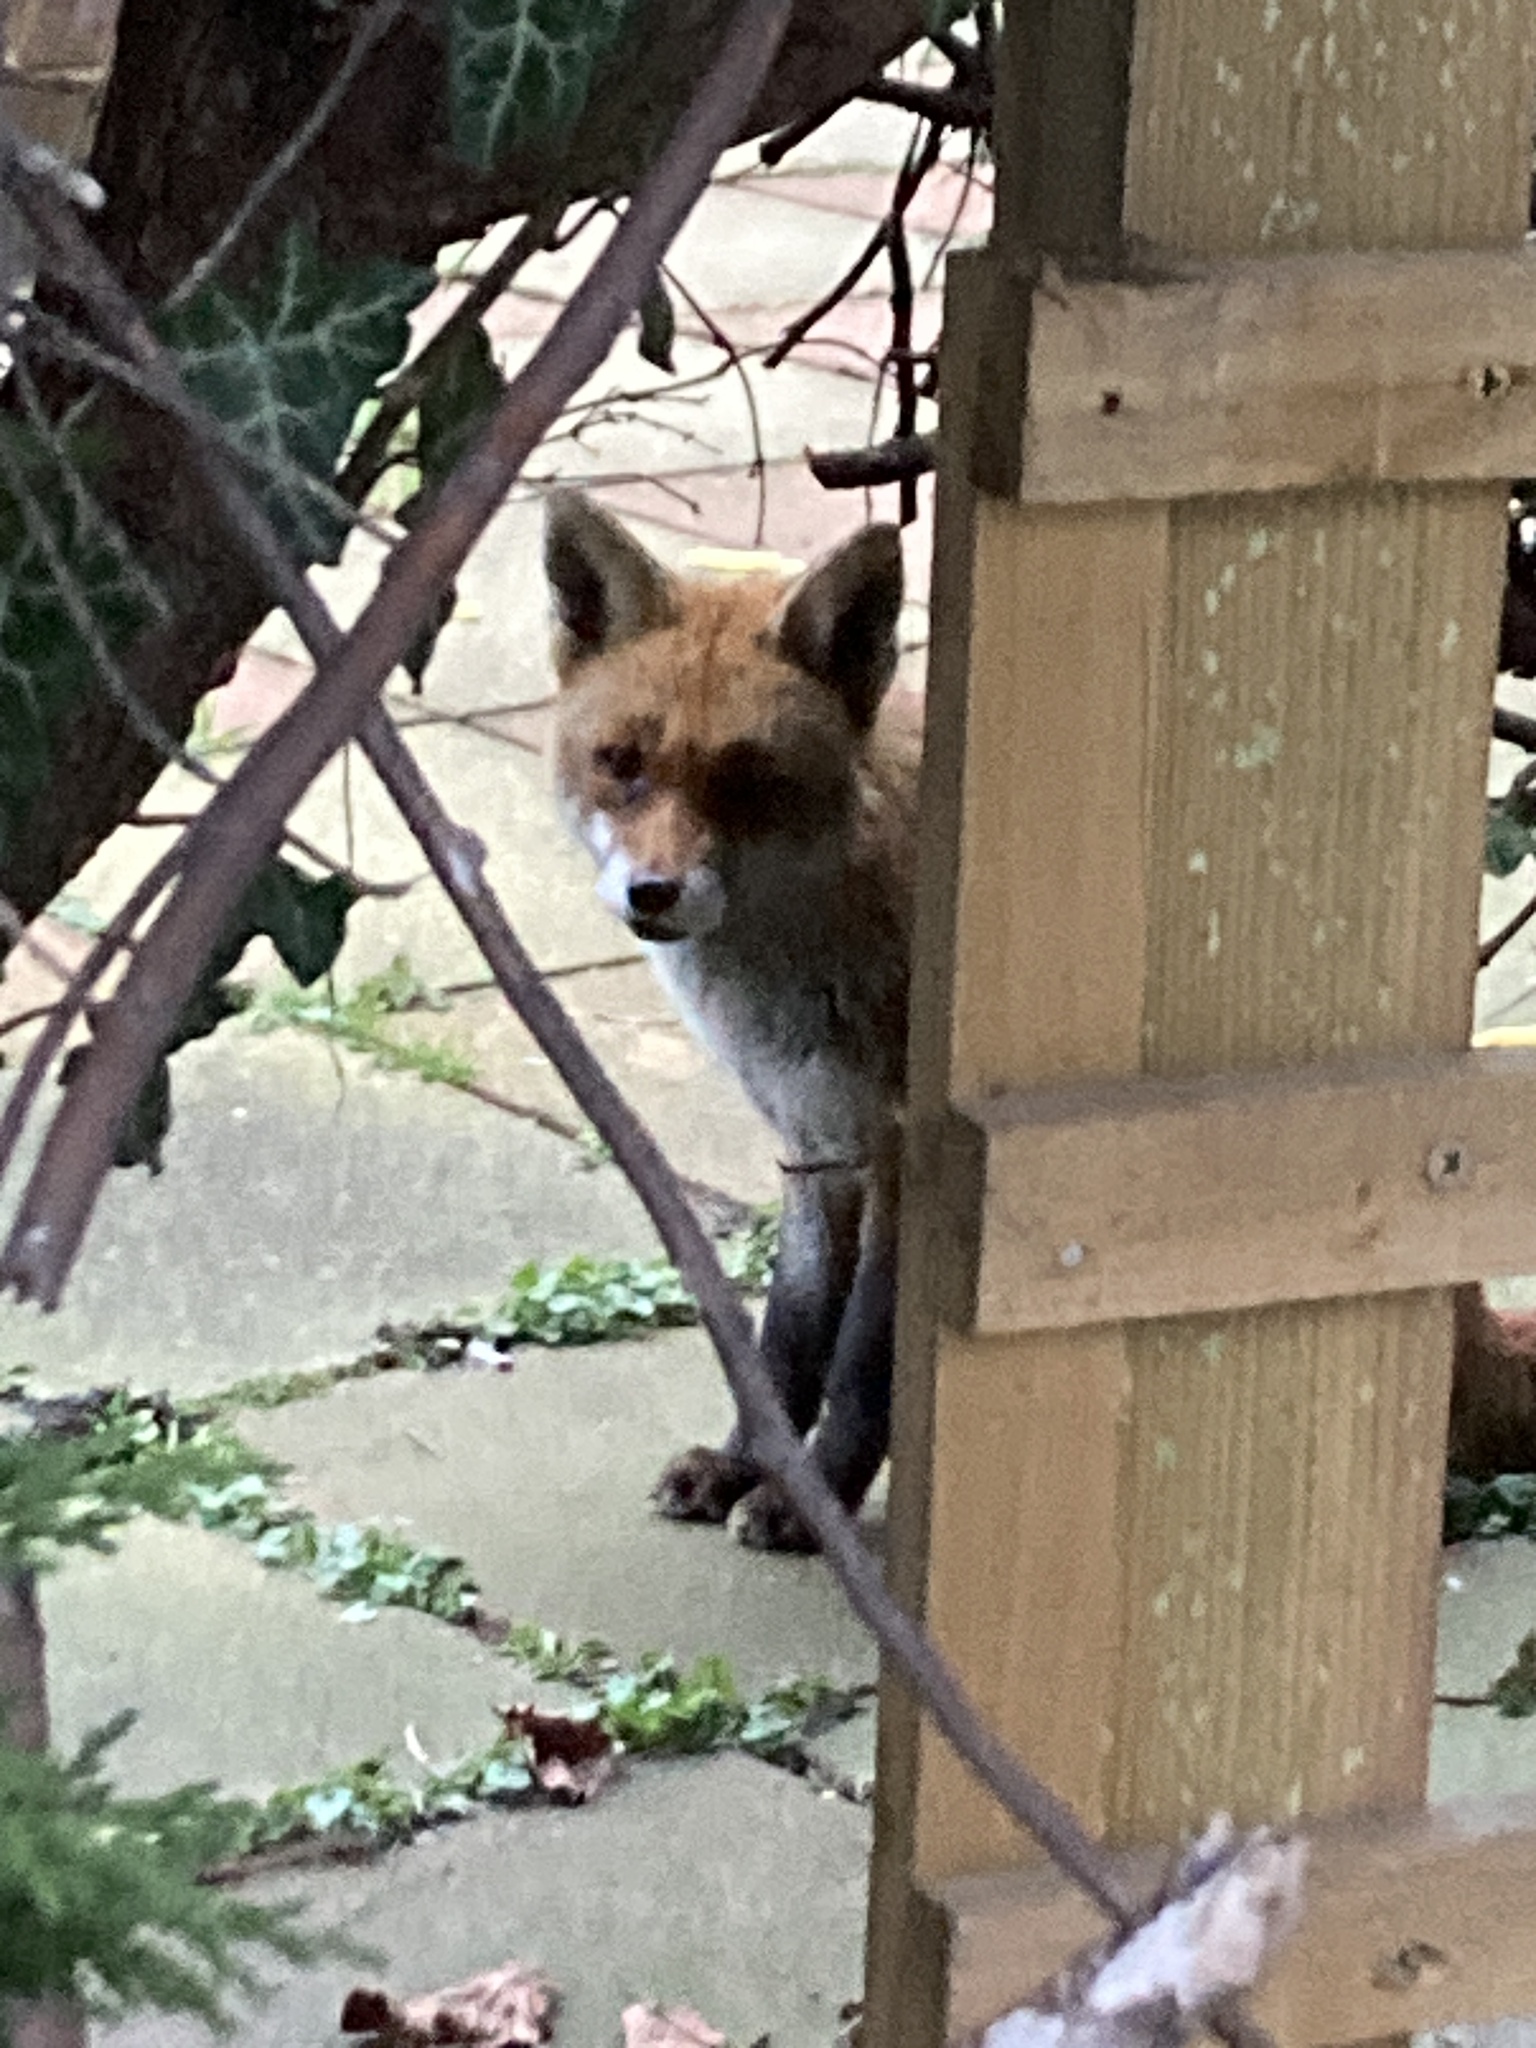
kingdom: Animalia
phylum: Chordata
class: Mammalia
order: Carnivora
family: Canidae
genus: Vulpes
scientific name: Vulpes vulpes
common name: Red fox
